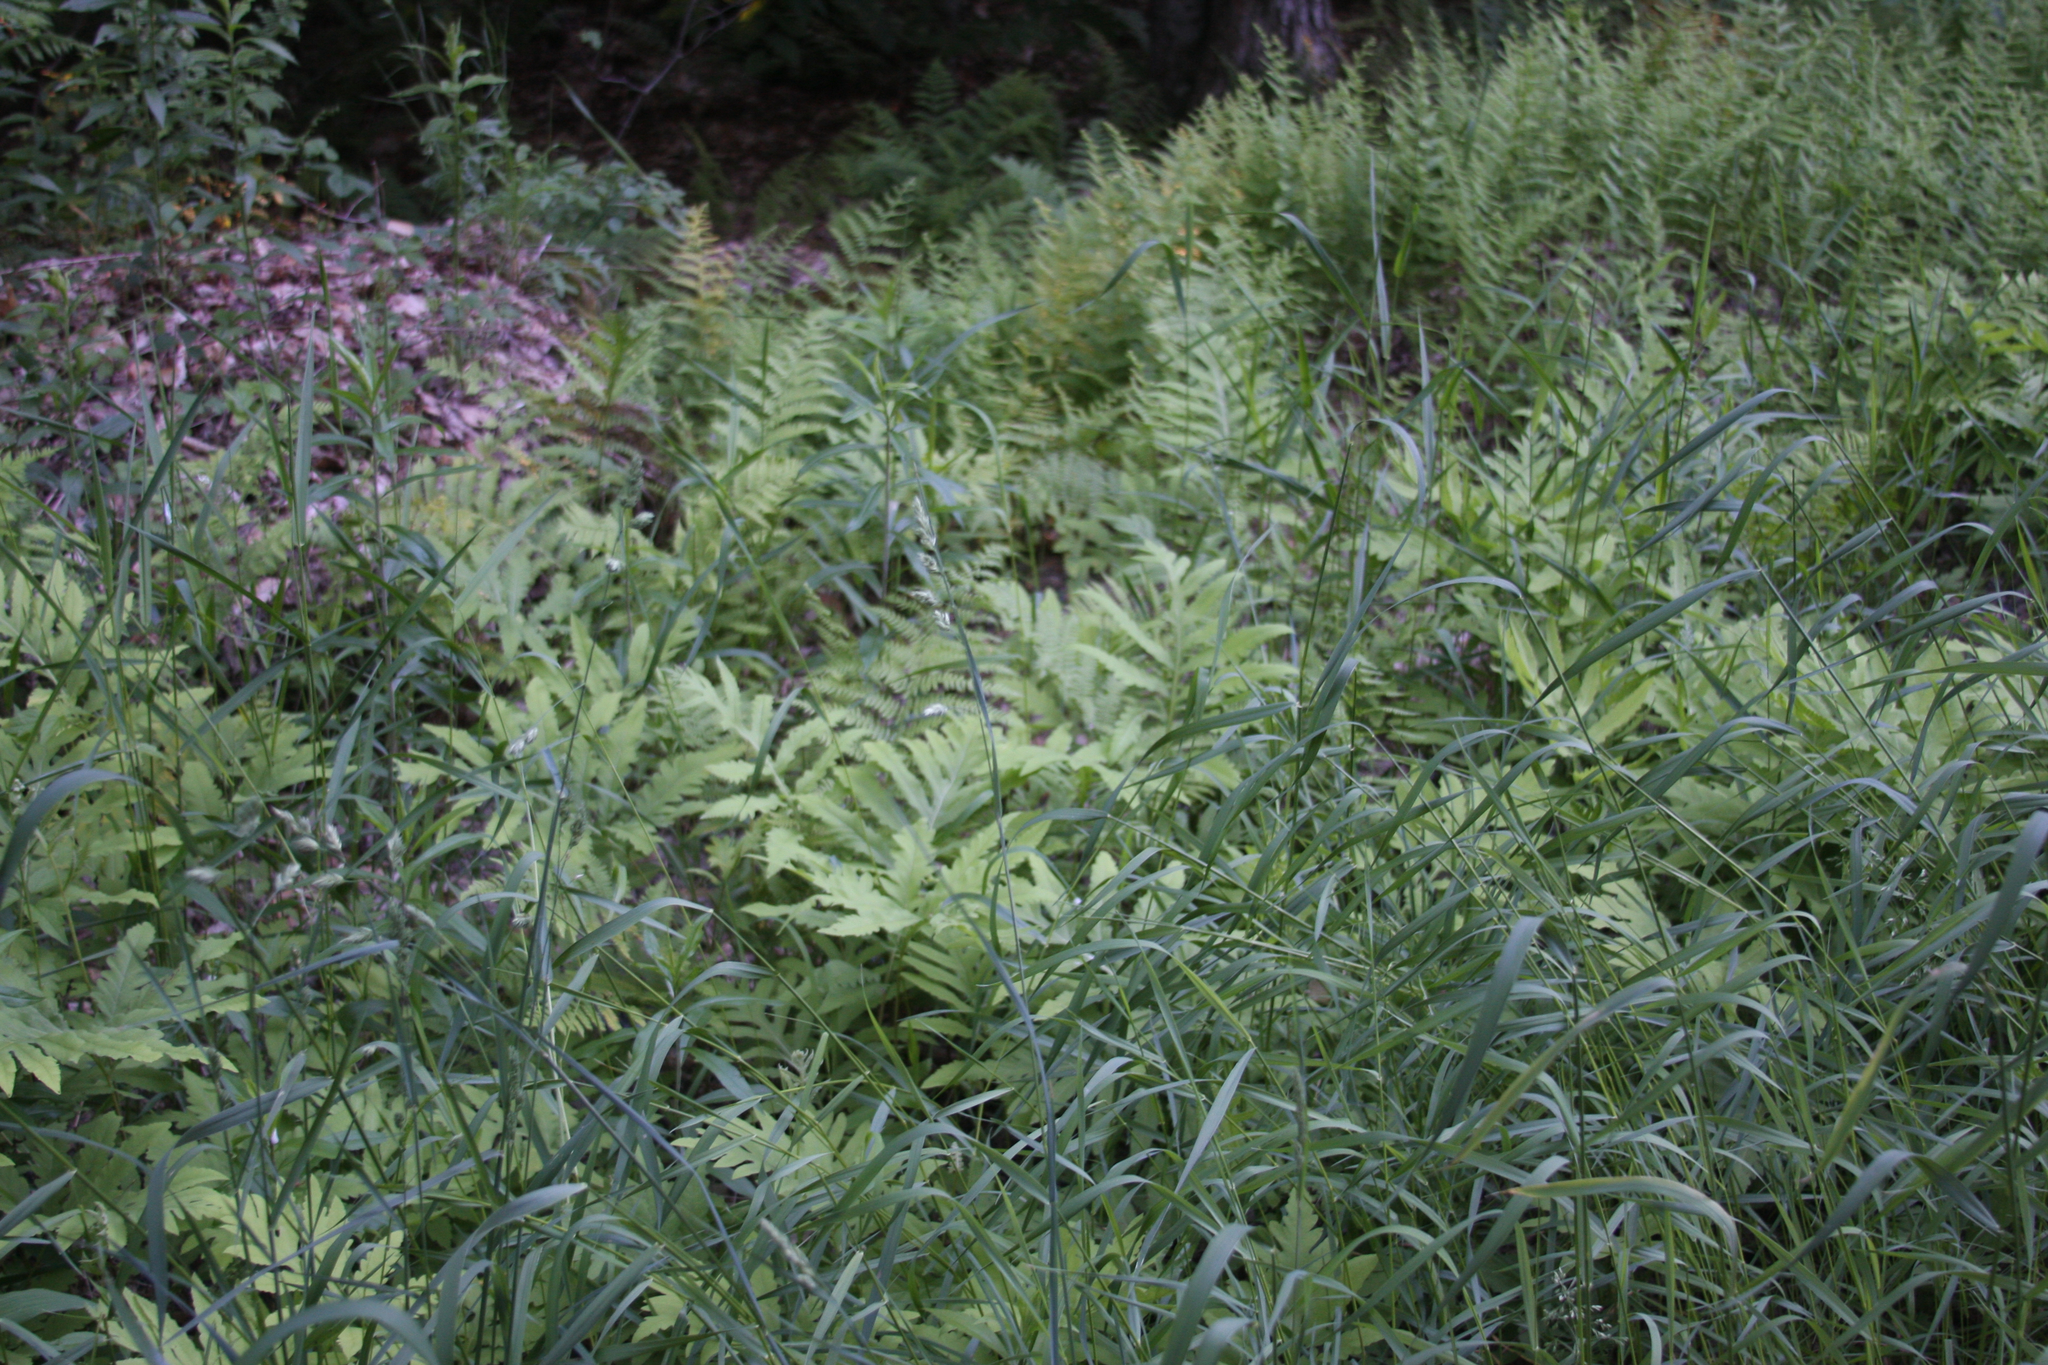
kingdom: Plantae
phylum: Tracheophyta
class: Polypodiopsida
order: Polypodiales
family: Onocleaceae
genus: Onoclea
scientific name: Onoclea sensibilis
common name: Sensitive fern
